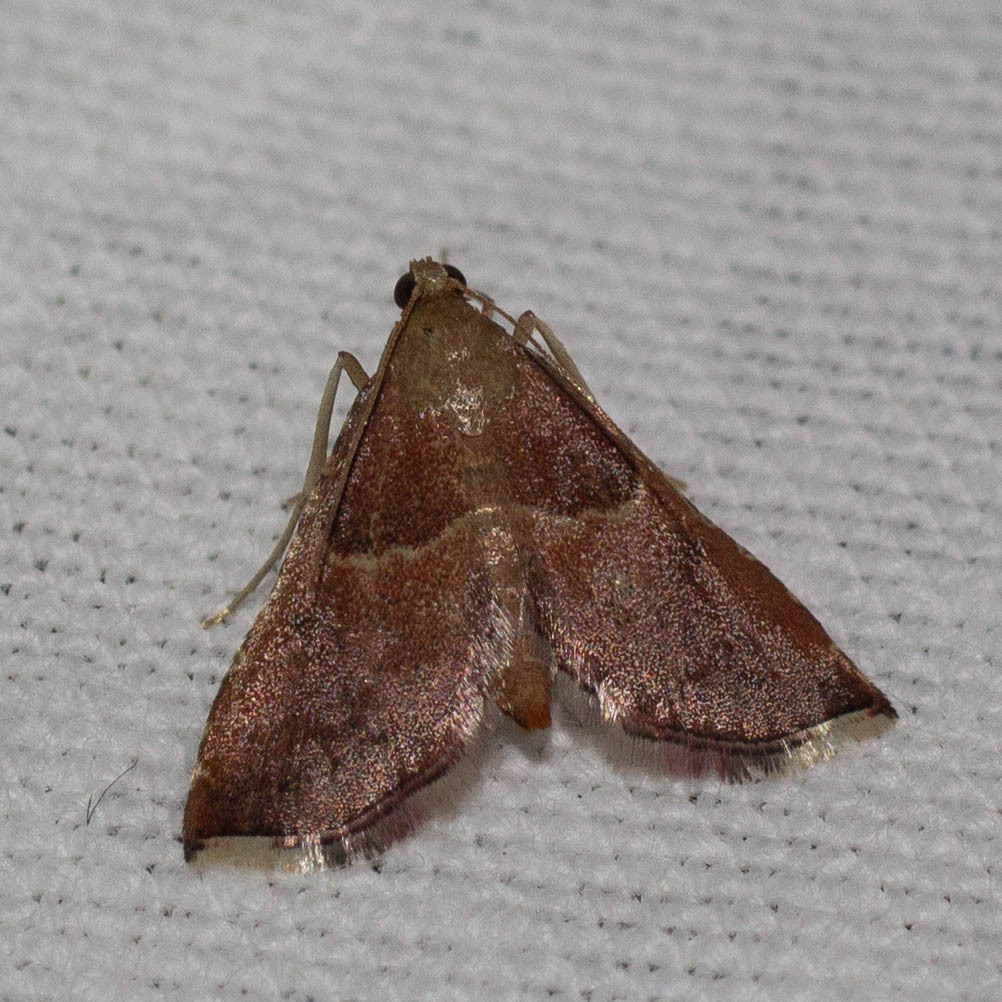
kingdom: Animalia
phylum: Arthropoda
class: Insecta
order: Lepidoptera
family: Pyralidae
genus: Endotricha
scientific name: Endotricha flammealis
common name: Rosy tabby
